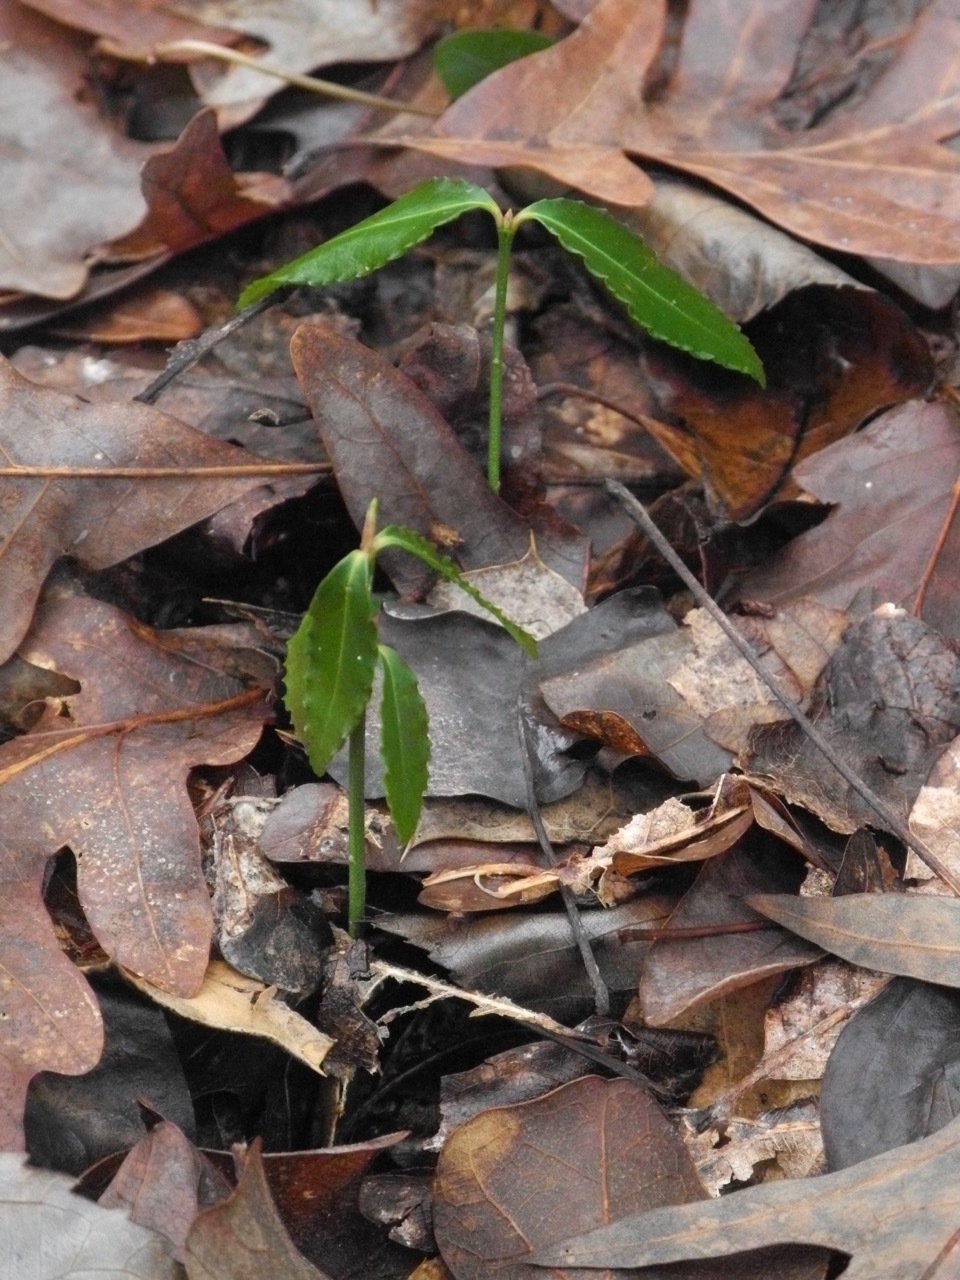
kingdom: Plantae
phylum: Tracheophyta
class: Magnoliopsida
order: Celastrales
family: Celastraceae
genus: Euonymus
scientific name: Euonymus americanus
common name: Bursting-heart
